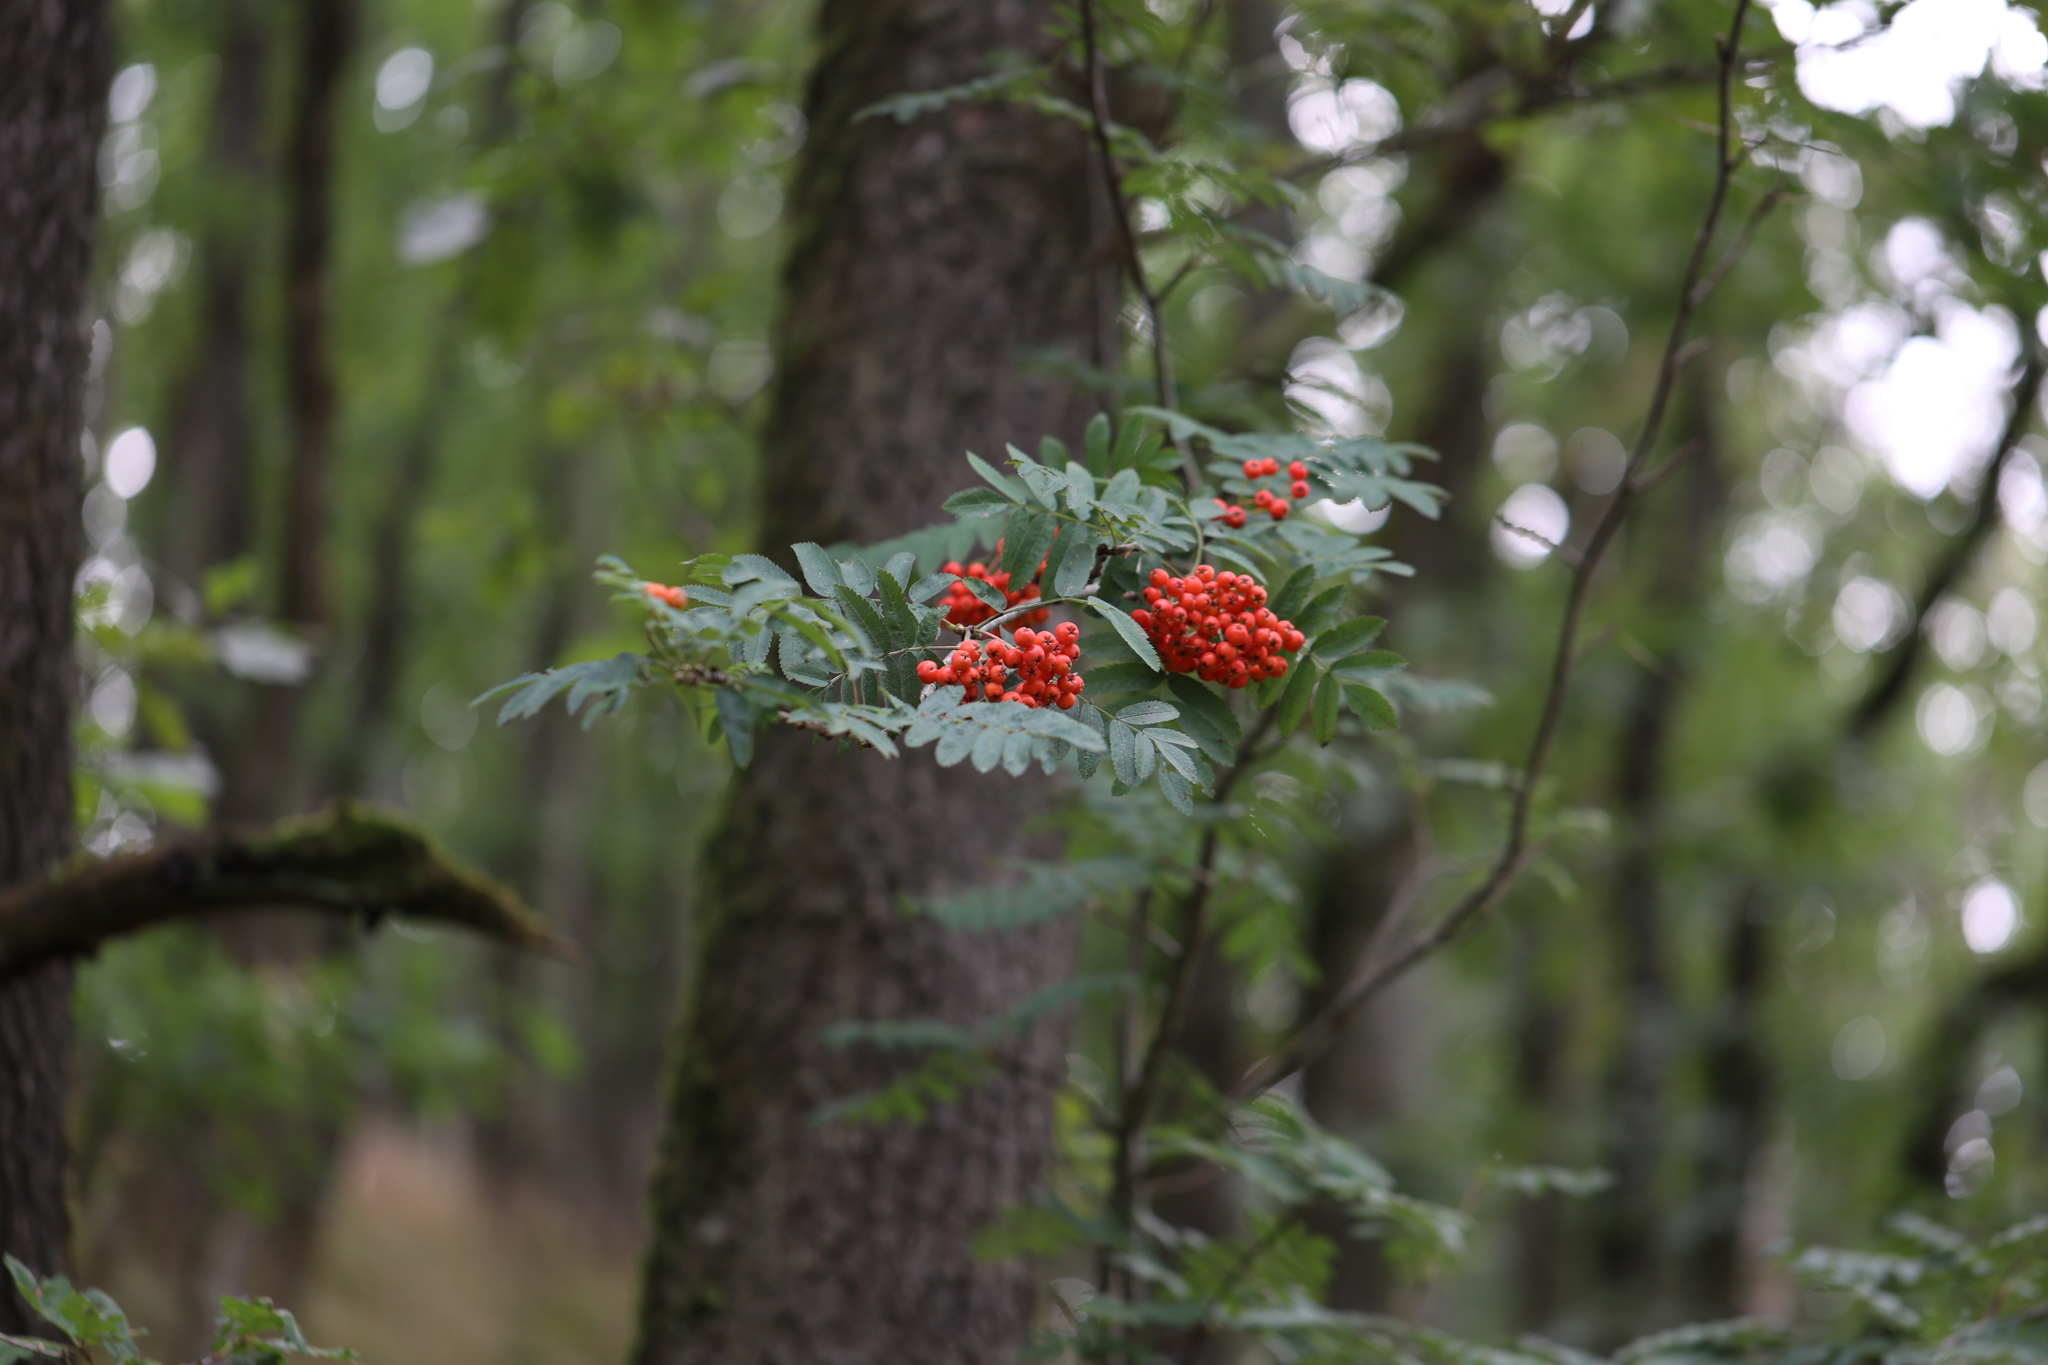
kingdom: Plantae
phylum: Tracheophyta
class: Magnoliopsida
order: Rosales
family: Rosaceae
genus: Sorbus
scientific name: Sorbus aucuparia
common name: Rowan
